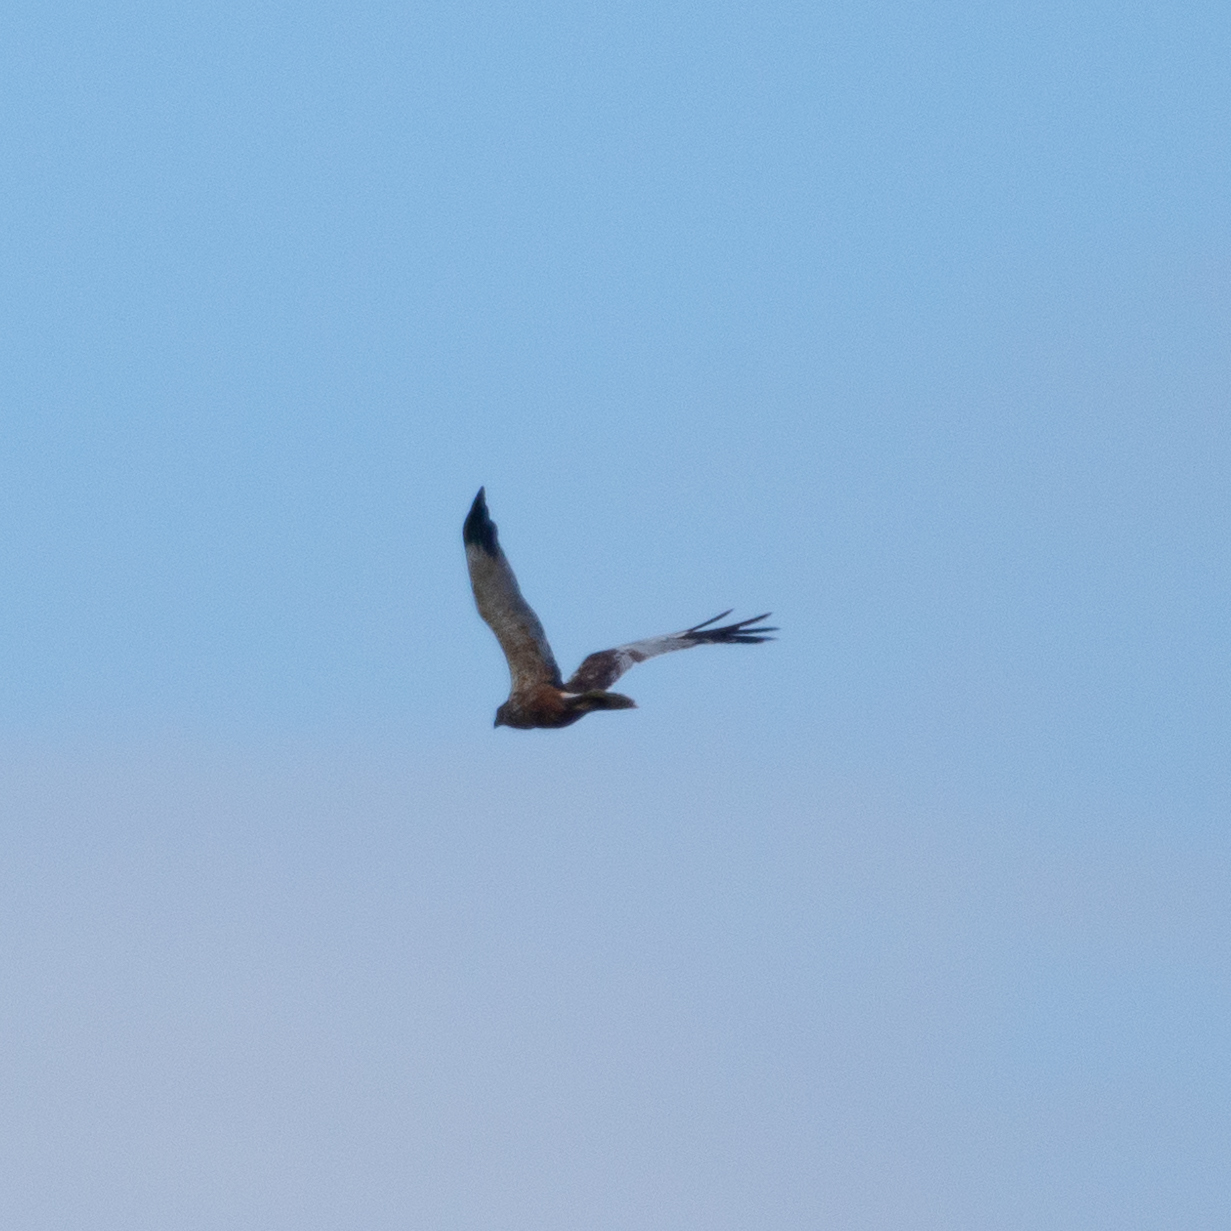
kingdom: Animalia
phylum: Chordata
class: Aves
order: Accipitriformes
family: Accipitridae
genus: Circus
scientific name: Circus aeruginosus
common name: Western marsh harrier
